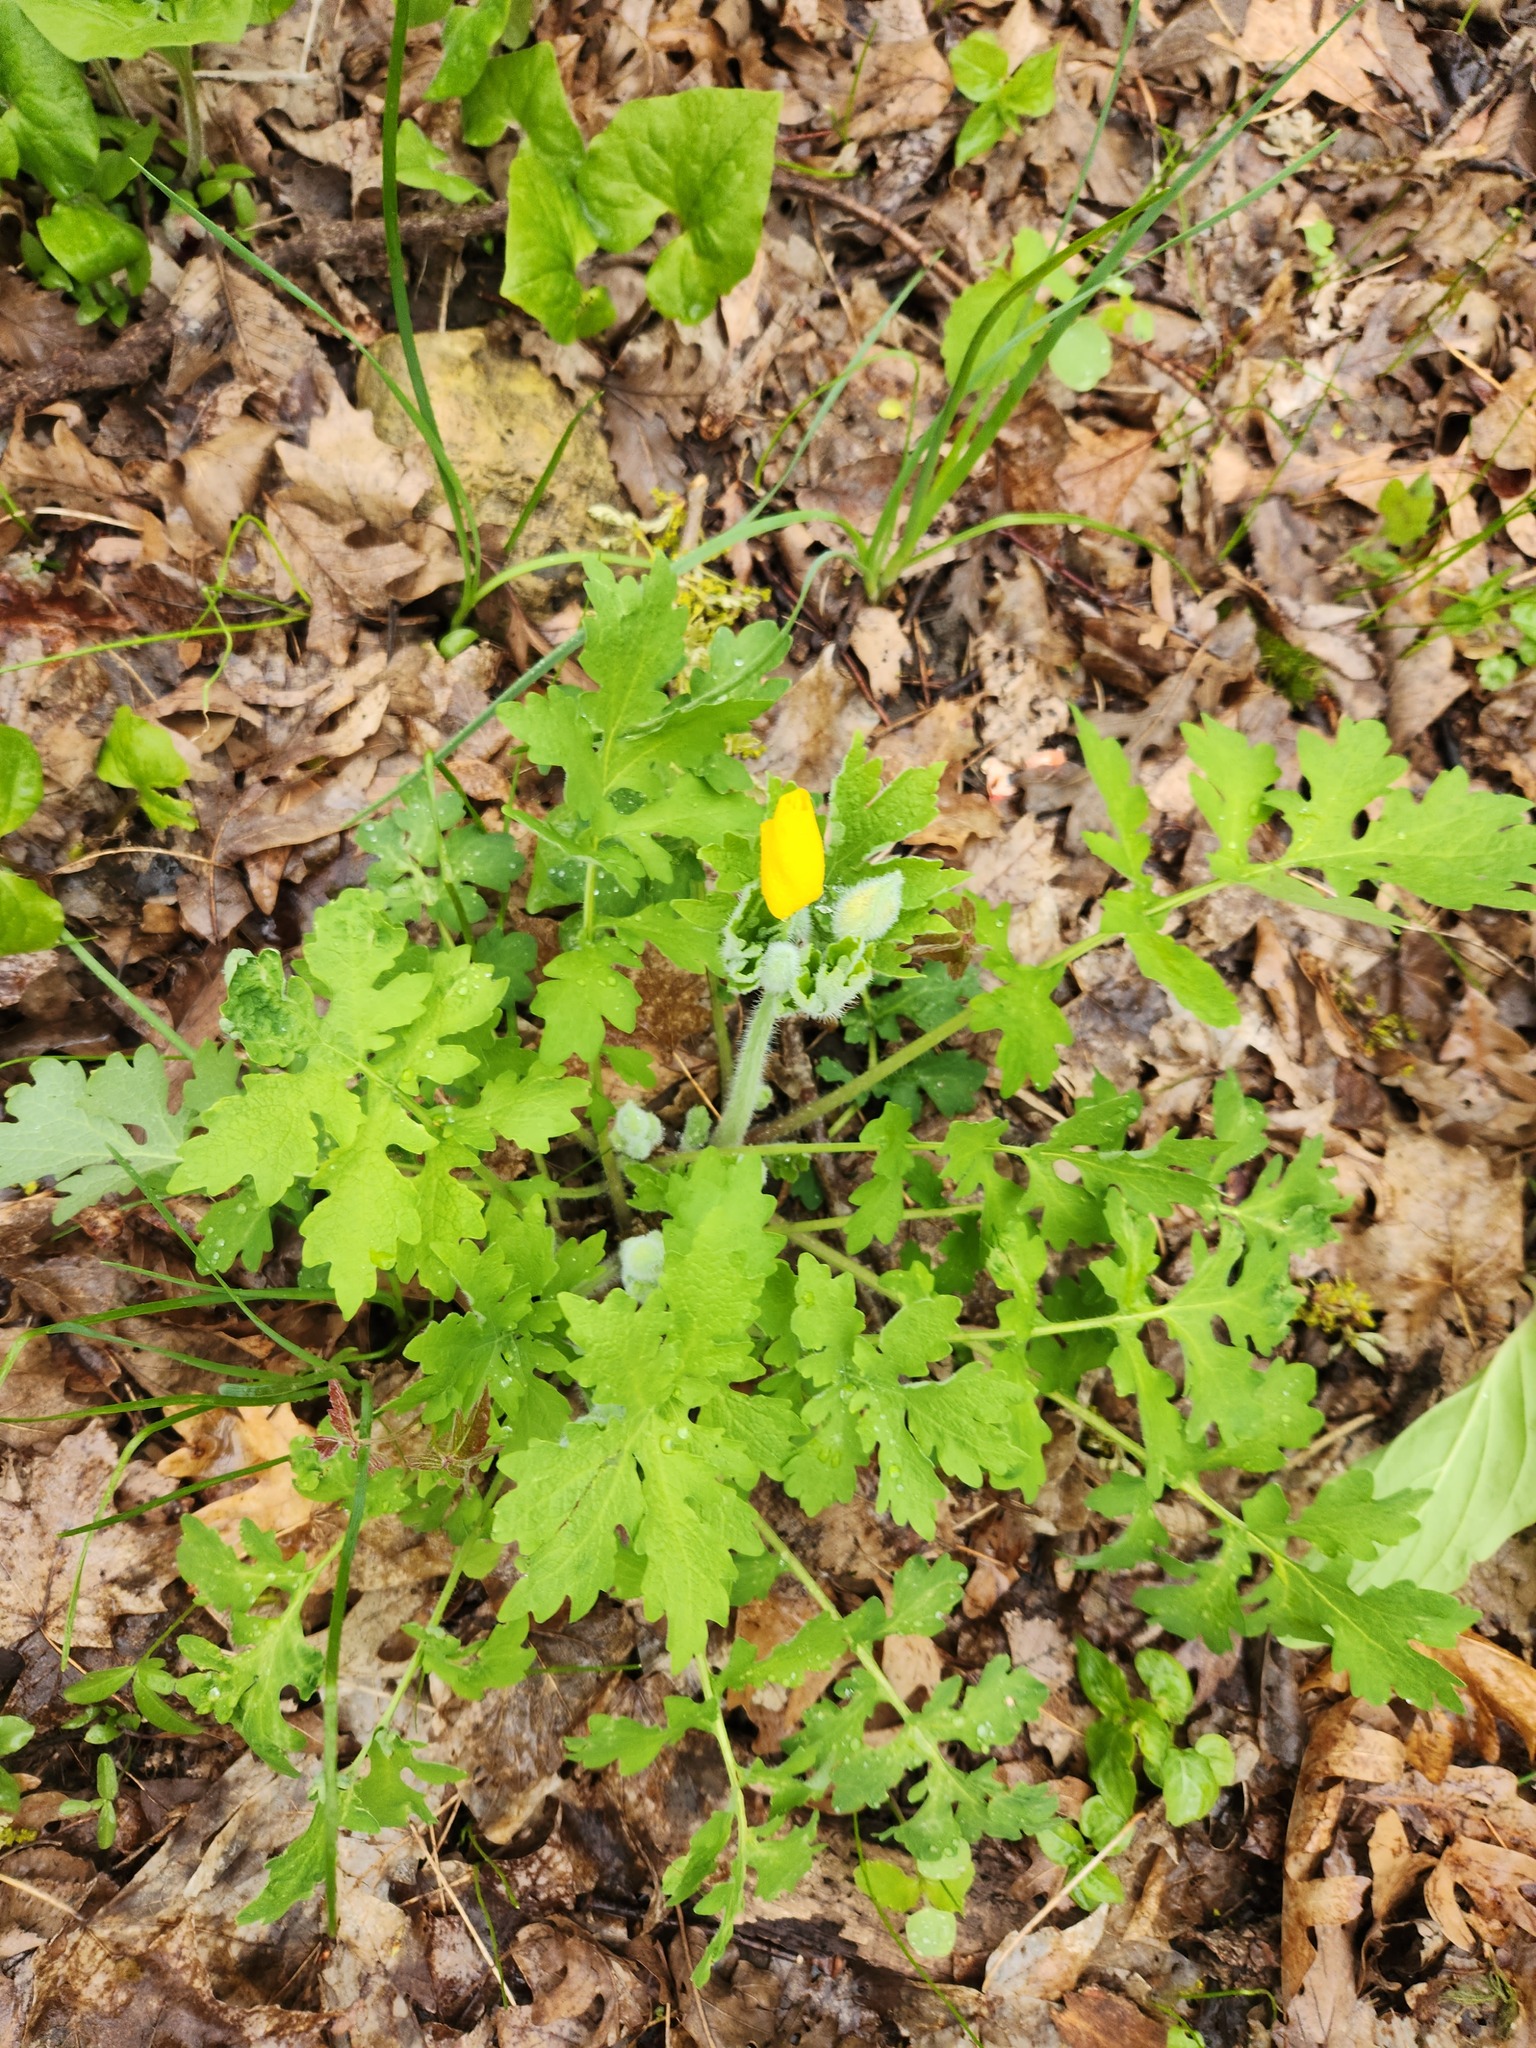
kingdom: Plantae
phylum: Tracheophyta
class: Magnoliopsida
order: Ranunculales
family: Papaveraceae
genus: Stylophorum
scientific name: Stylophorum diphyllum
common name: Celandine poppy
